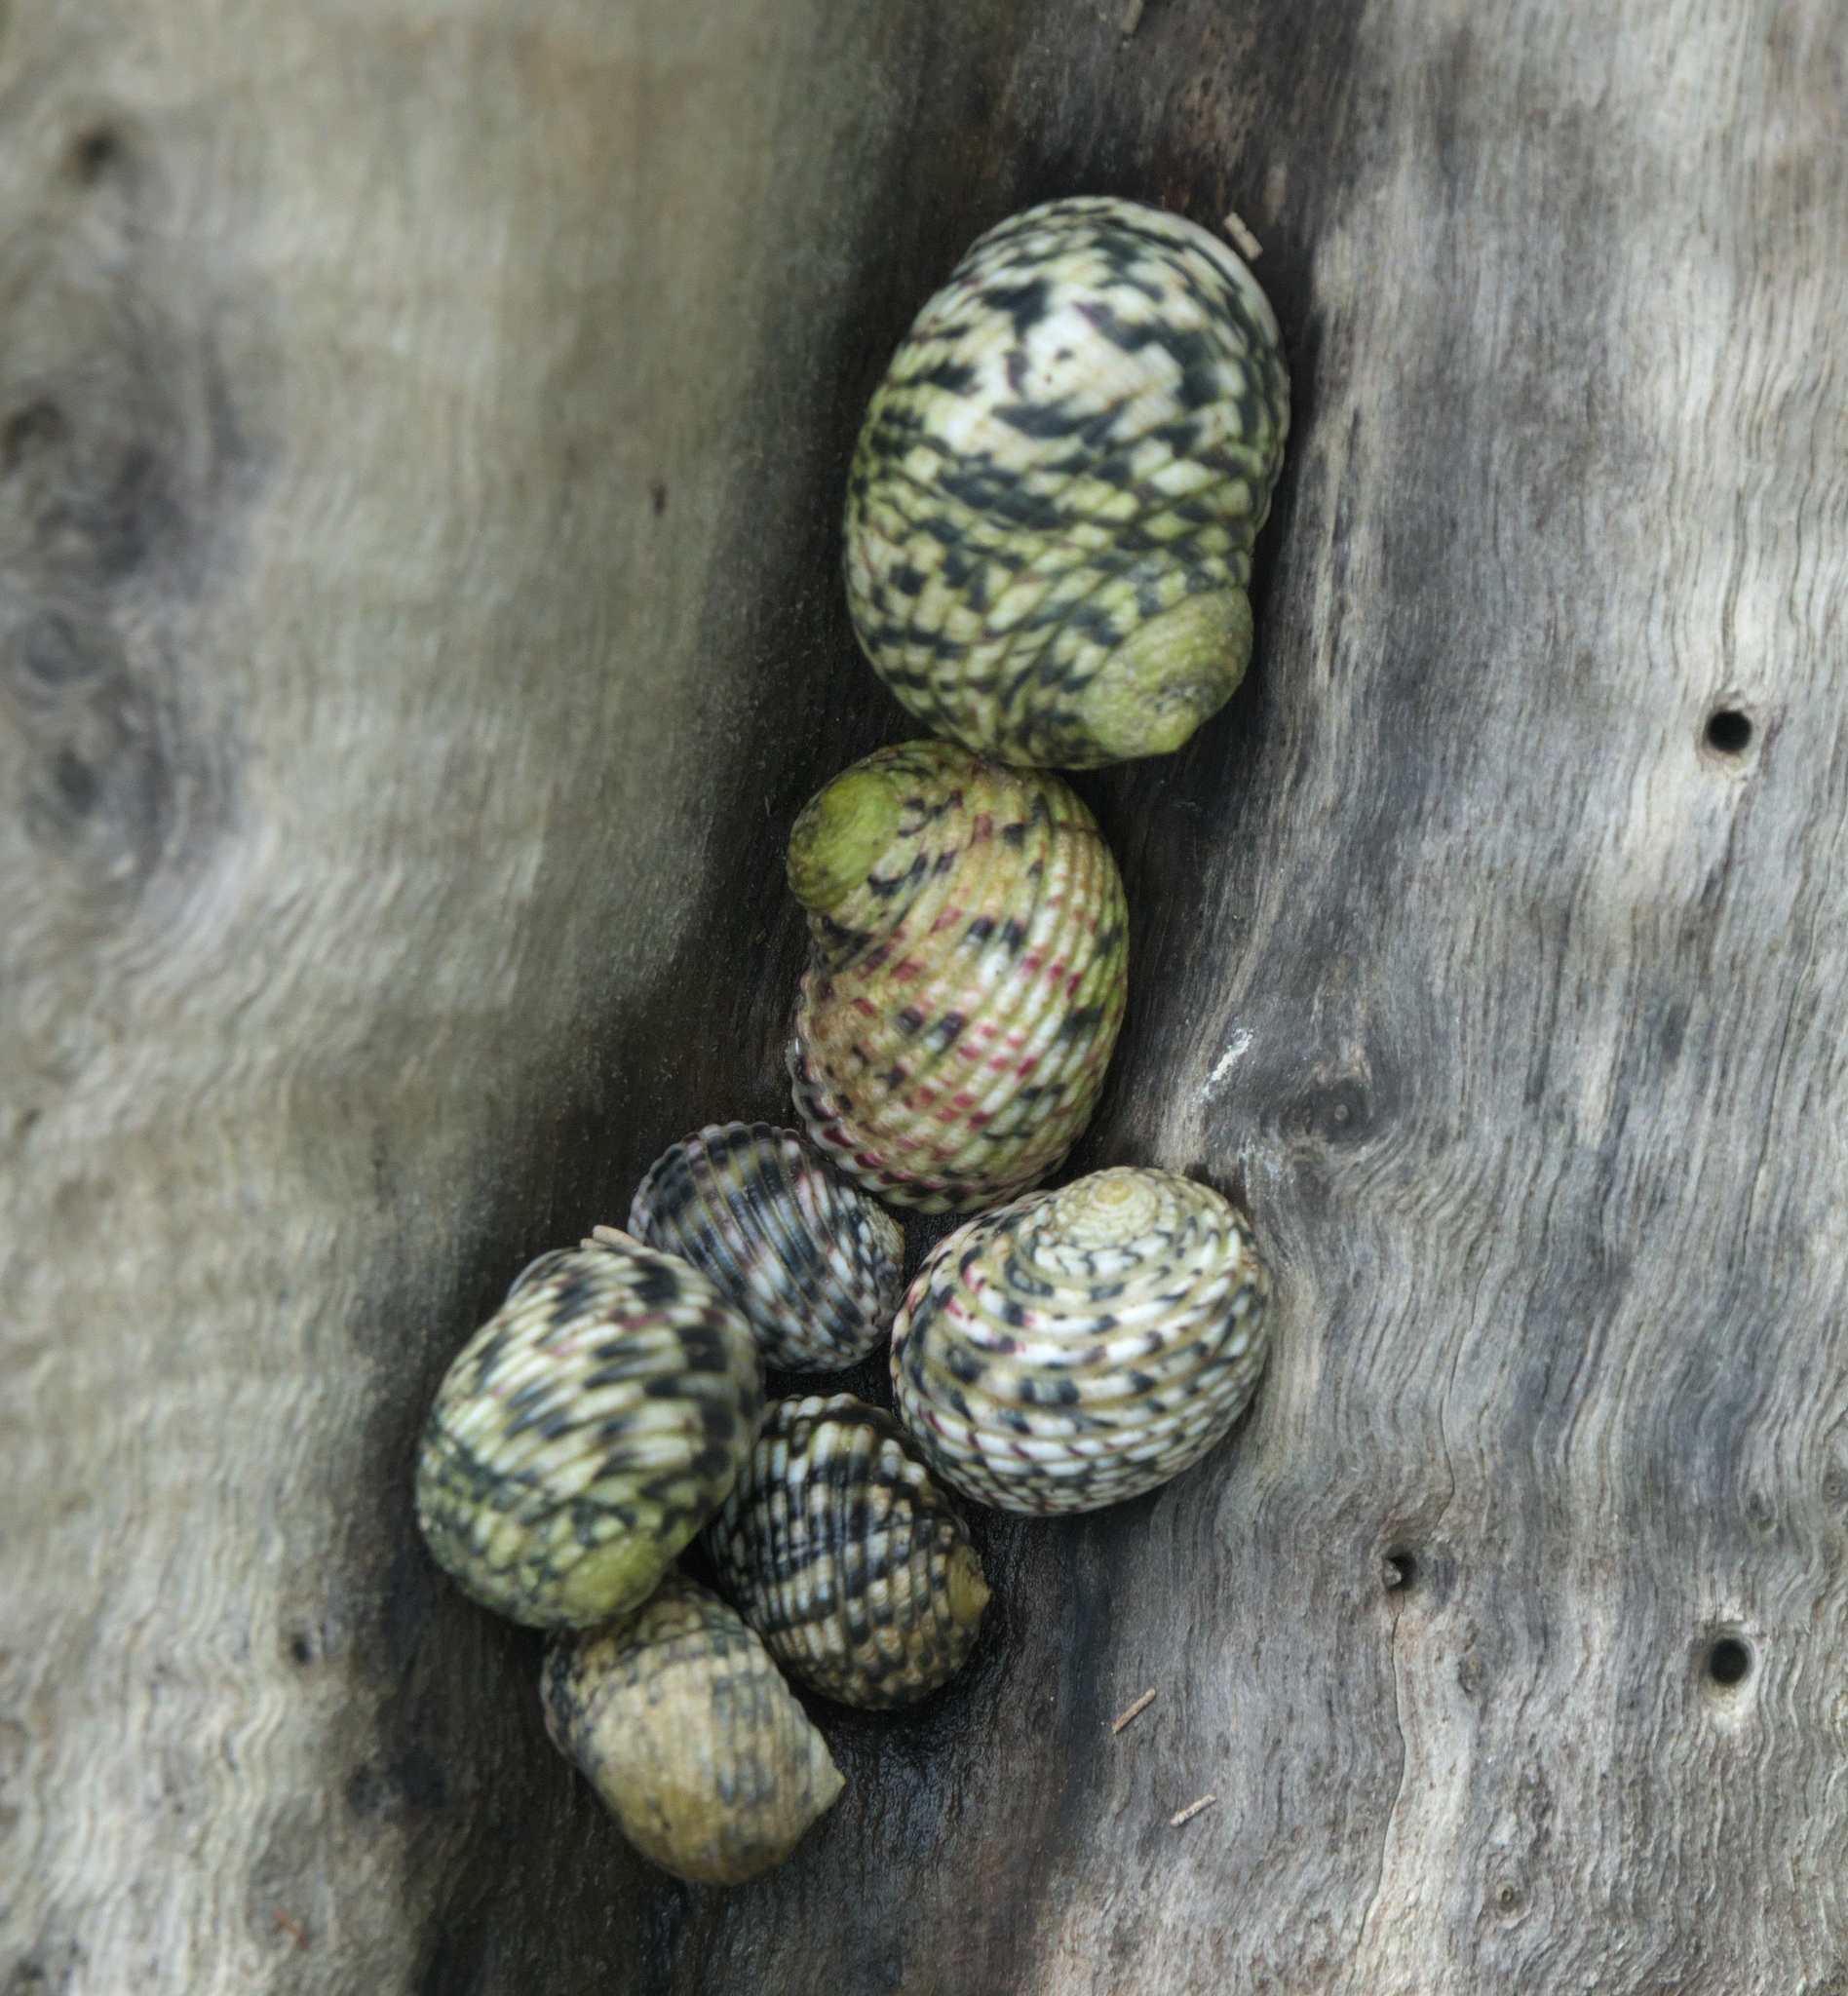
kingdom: Animalia
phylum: Mollusca
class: Gastropoda
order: Cycloneritida
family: Neritidae
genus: Nerita
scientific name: Nerita versicolor
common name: Four-tooth nerite
